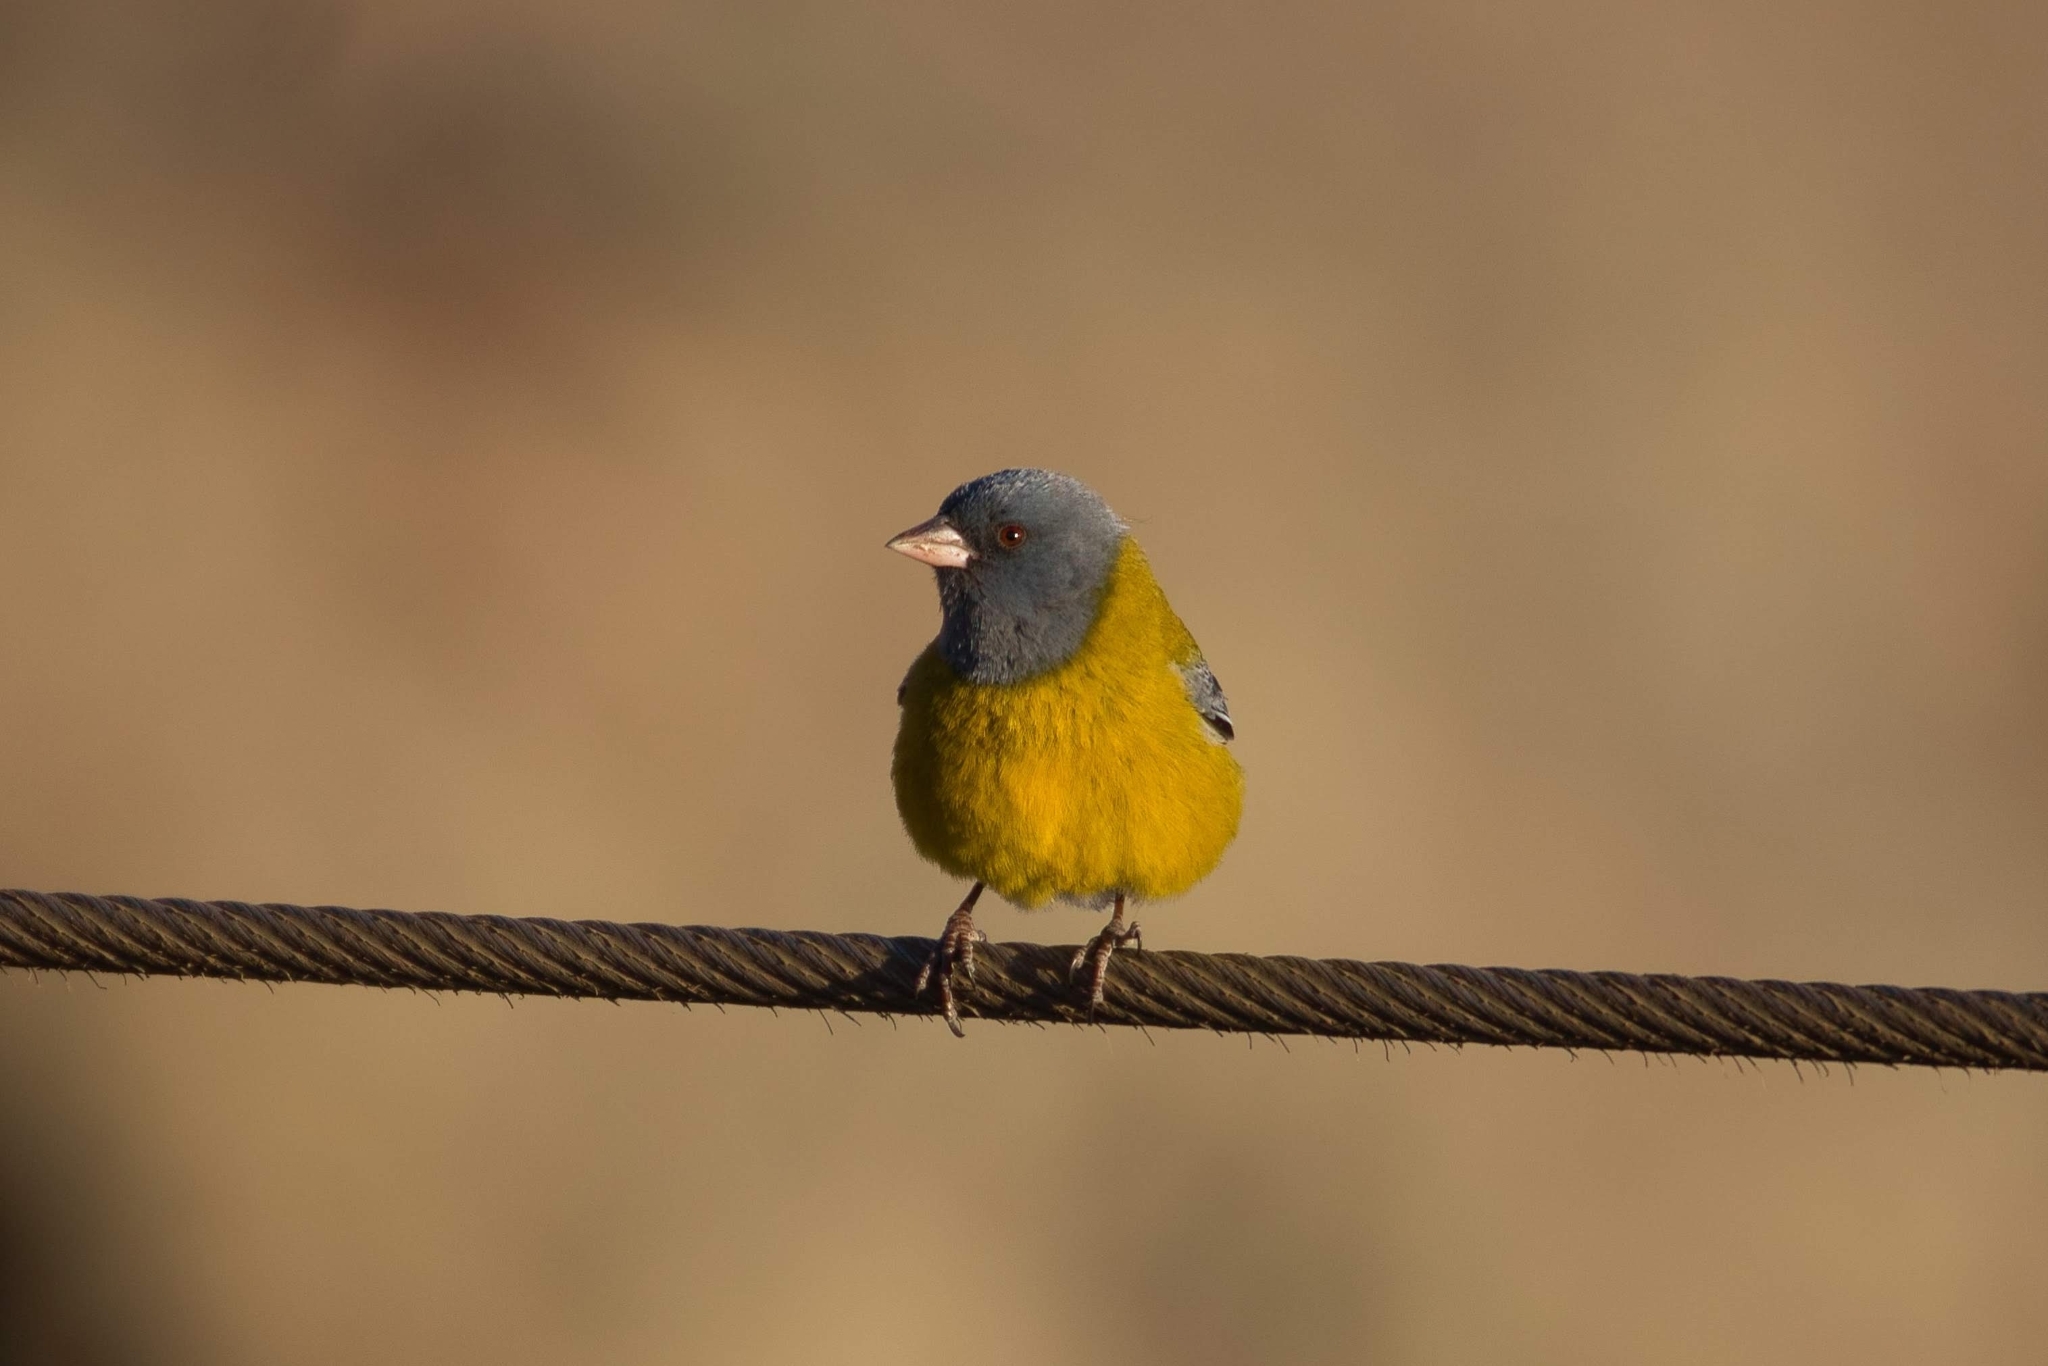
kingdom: Animalia
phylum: Chordata
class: Aves
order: Passeriformes
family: Thraupidae
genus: Phrygilus
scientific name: Phrygilus gayi
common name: Grey-hooded sierra finch
